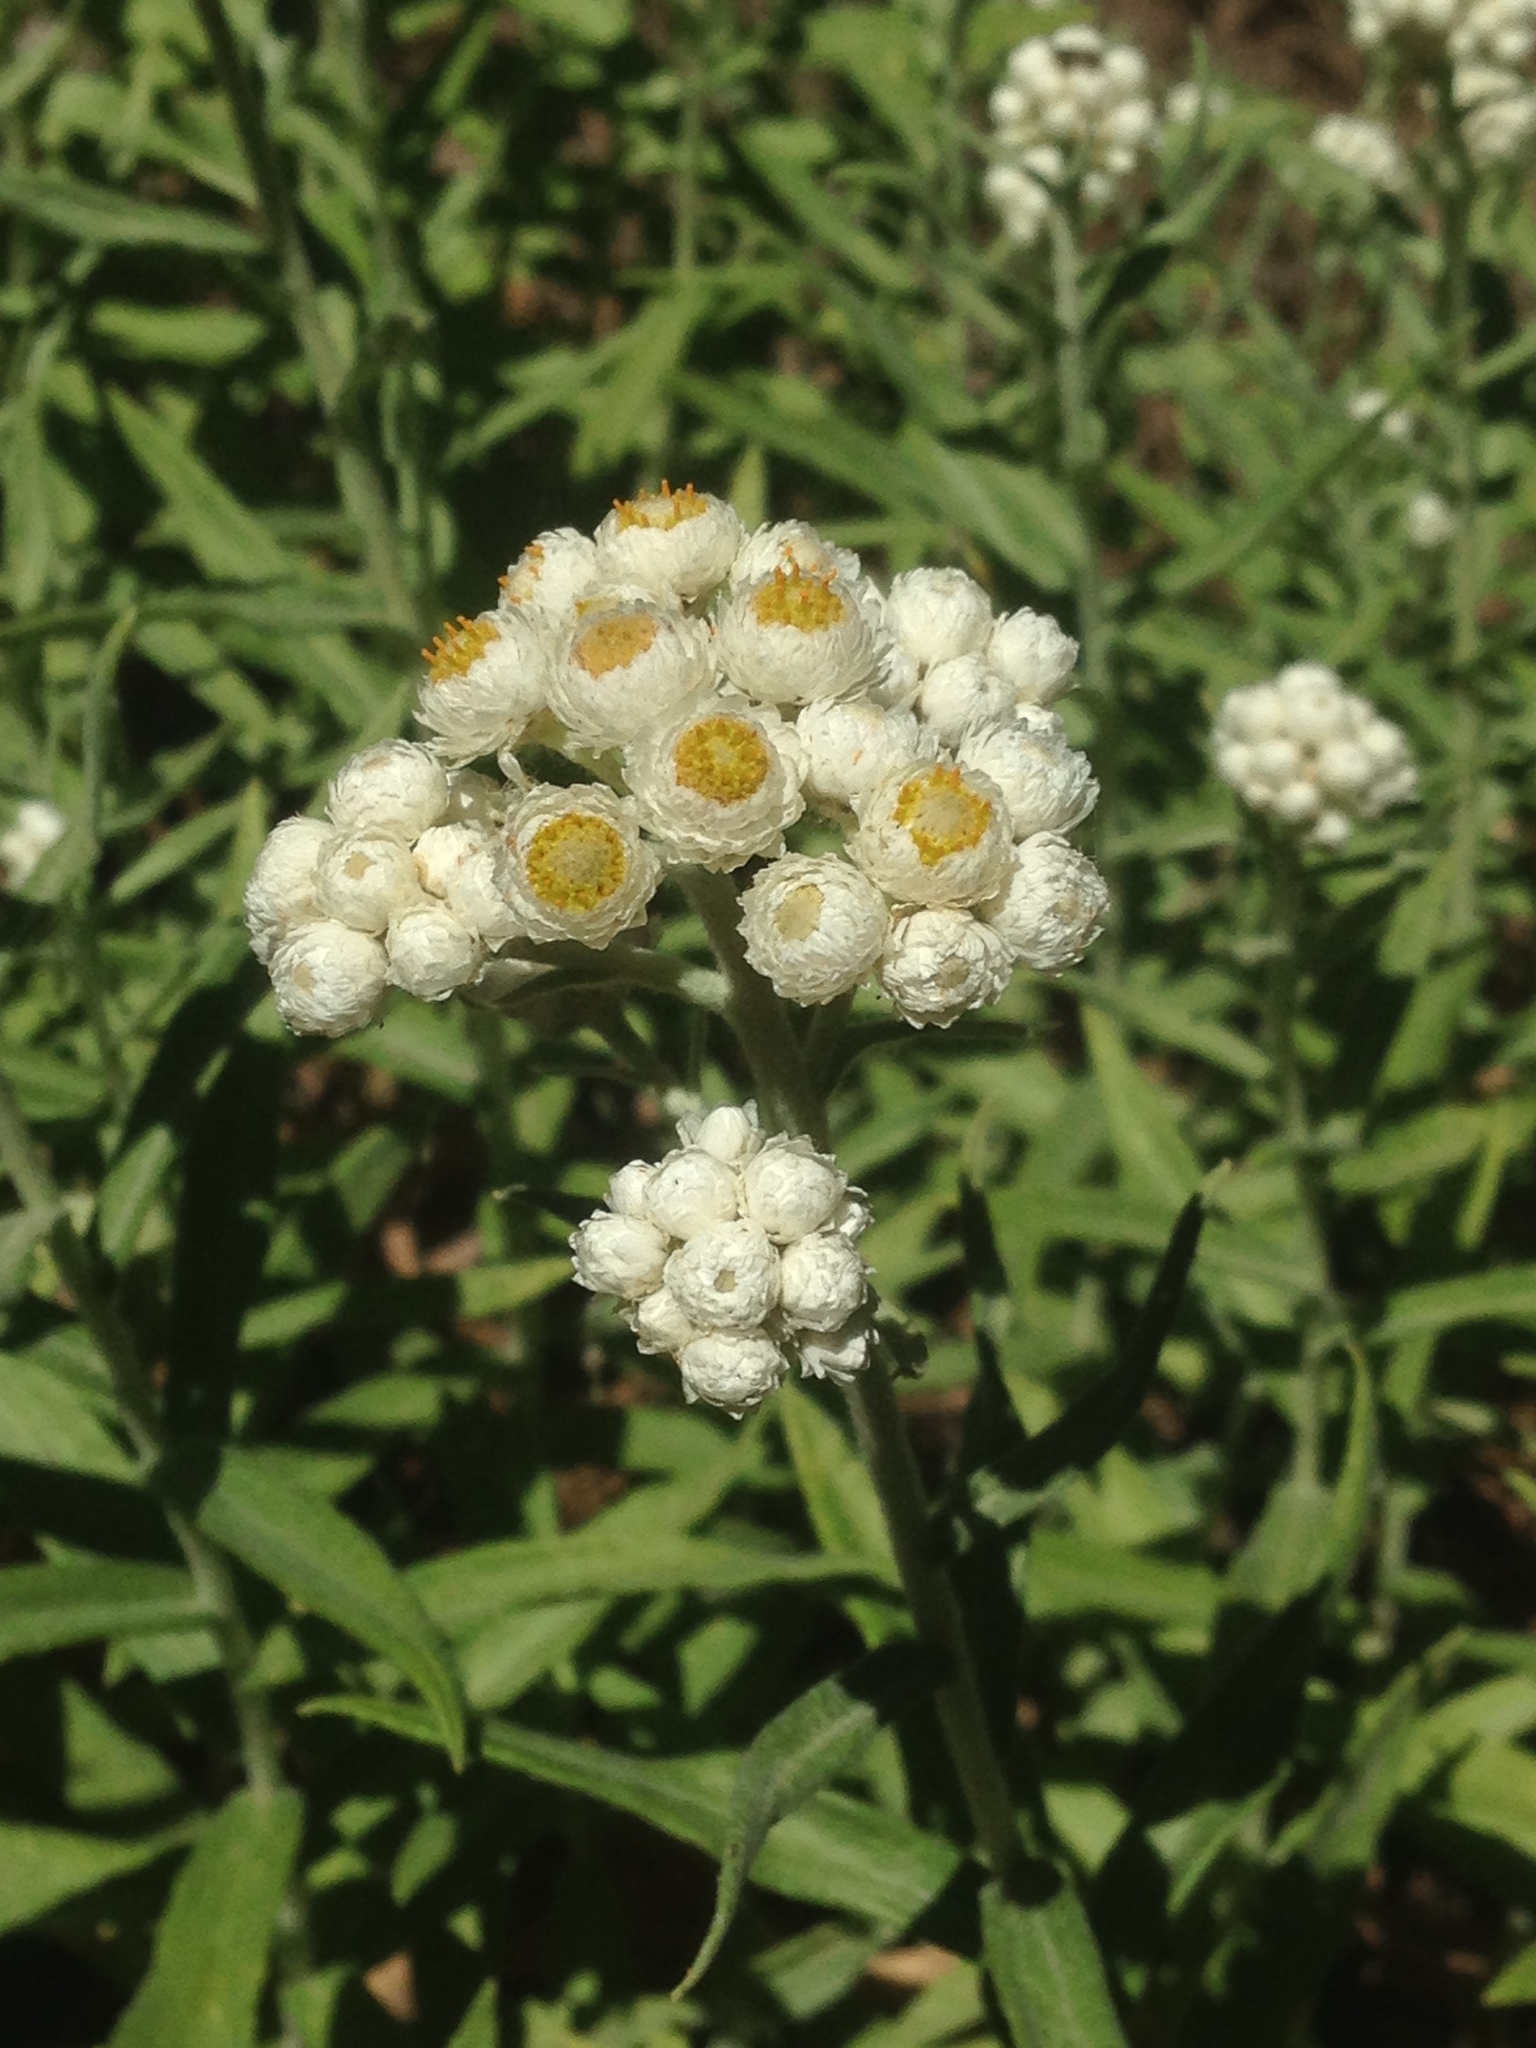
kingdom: Plantae
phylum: Tracheophyta
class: Magnoliopsida
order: Asterales
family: Asteraceae
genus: Anaphalis
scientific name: Anaphalis margaritacea
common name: Pearly everlasting
